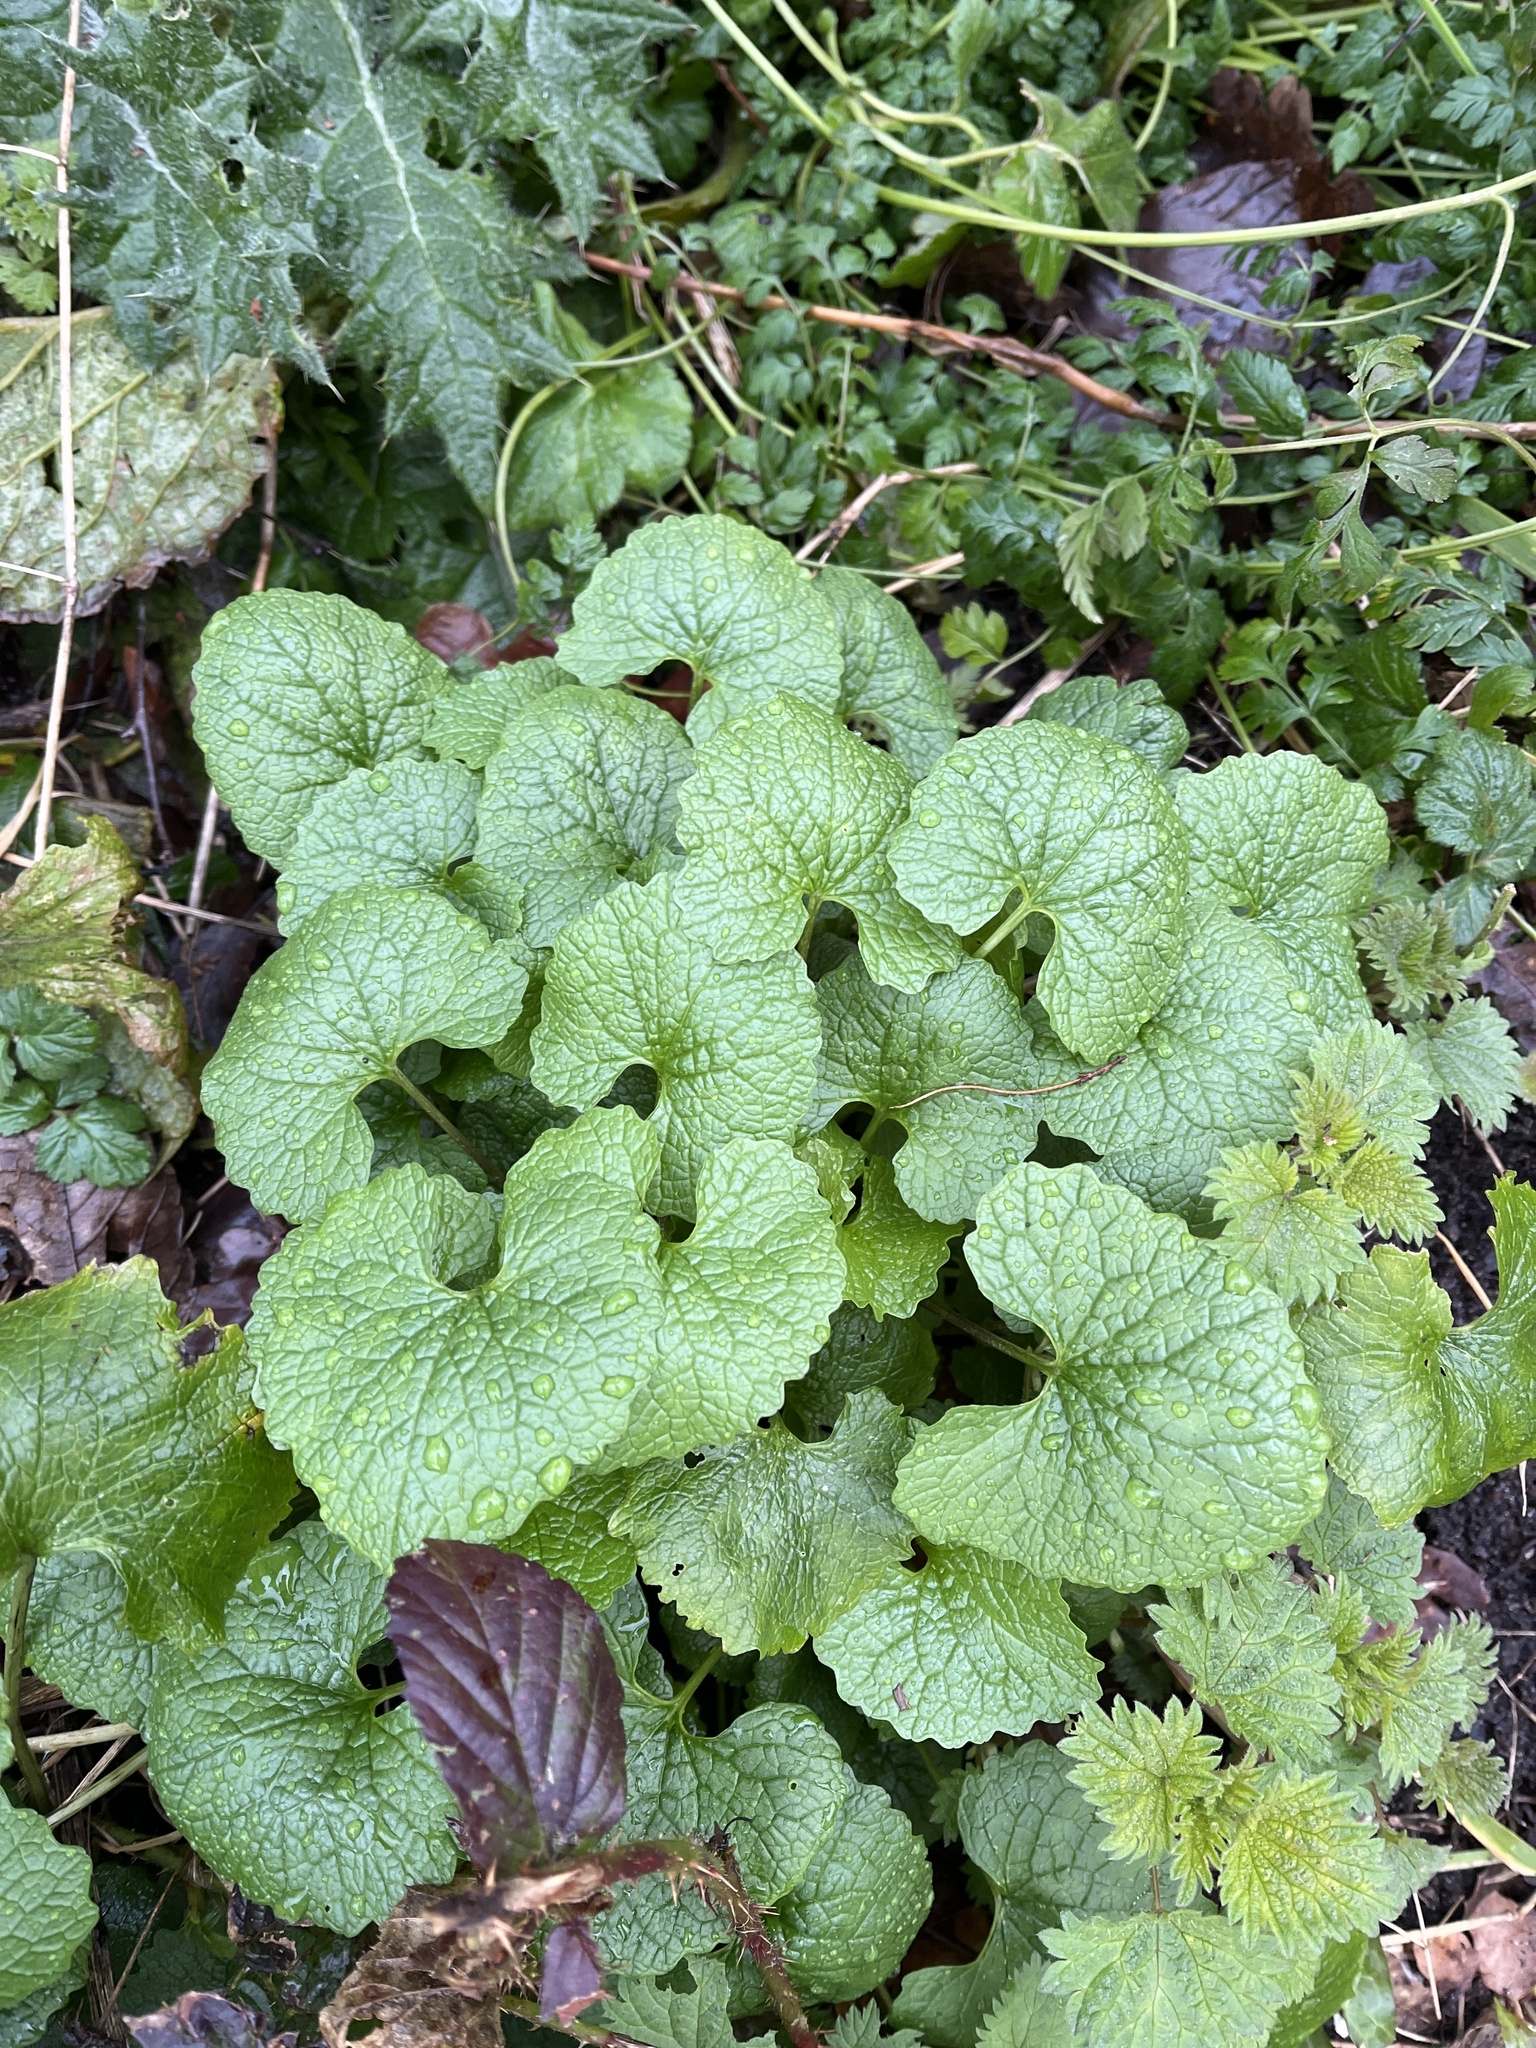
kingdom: Plantae
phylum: Tracheophyta
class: Magnoliopsida
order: Brassicales
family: Brassicaceae
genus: Alliaria
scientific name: Alliaria petiolata
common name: Garlic mustard
